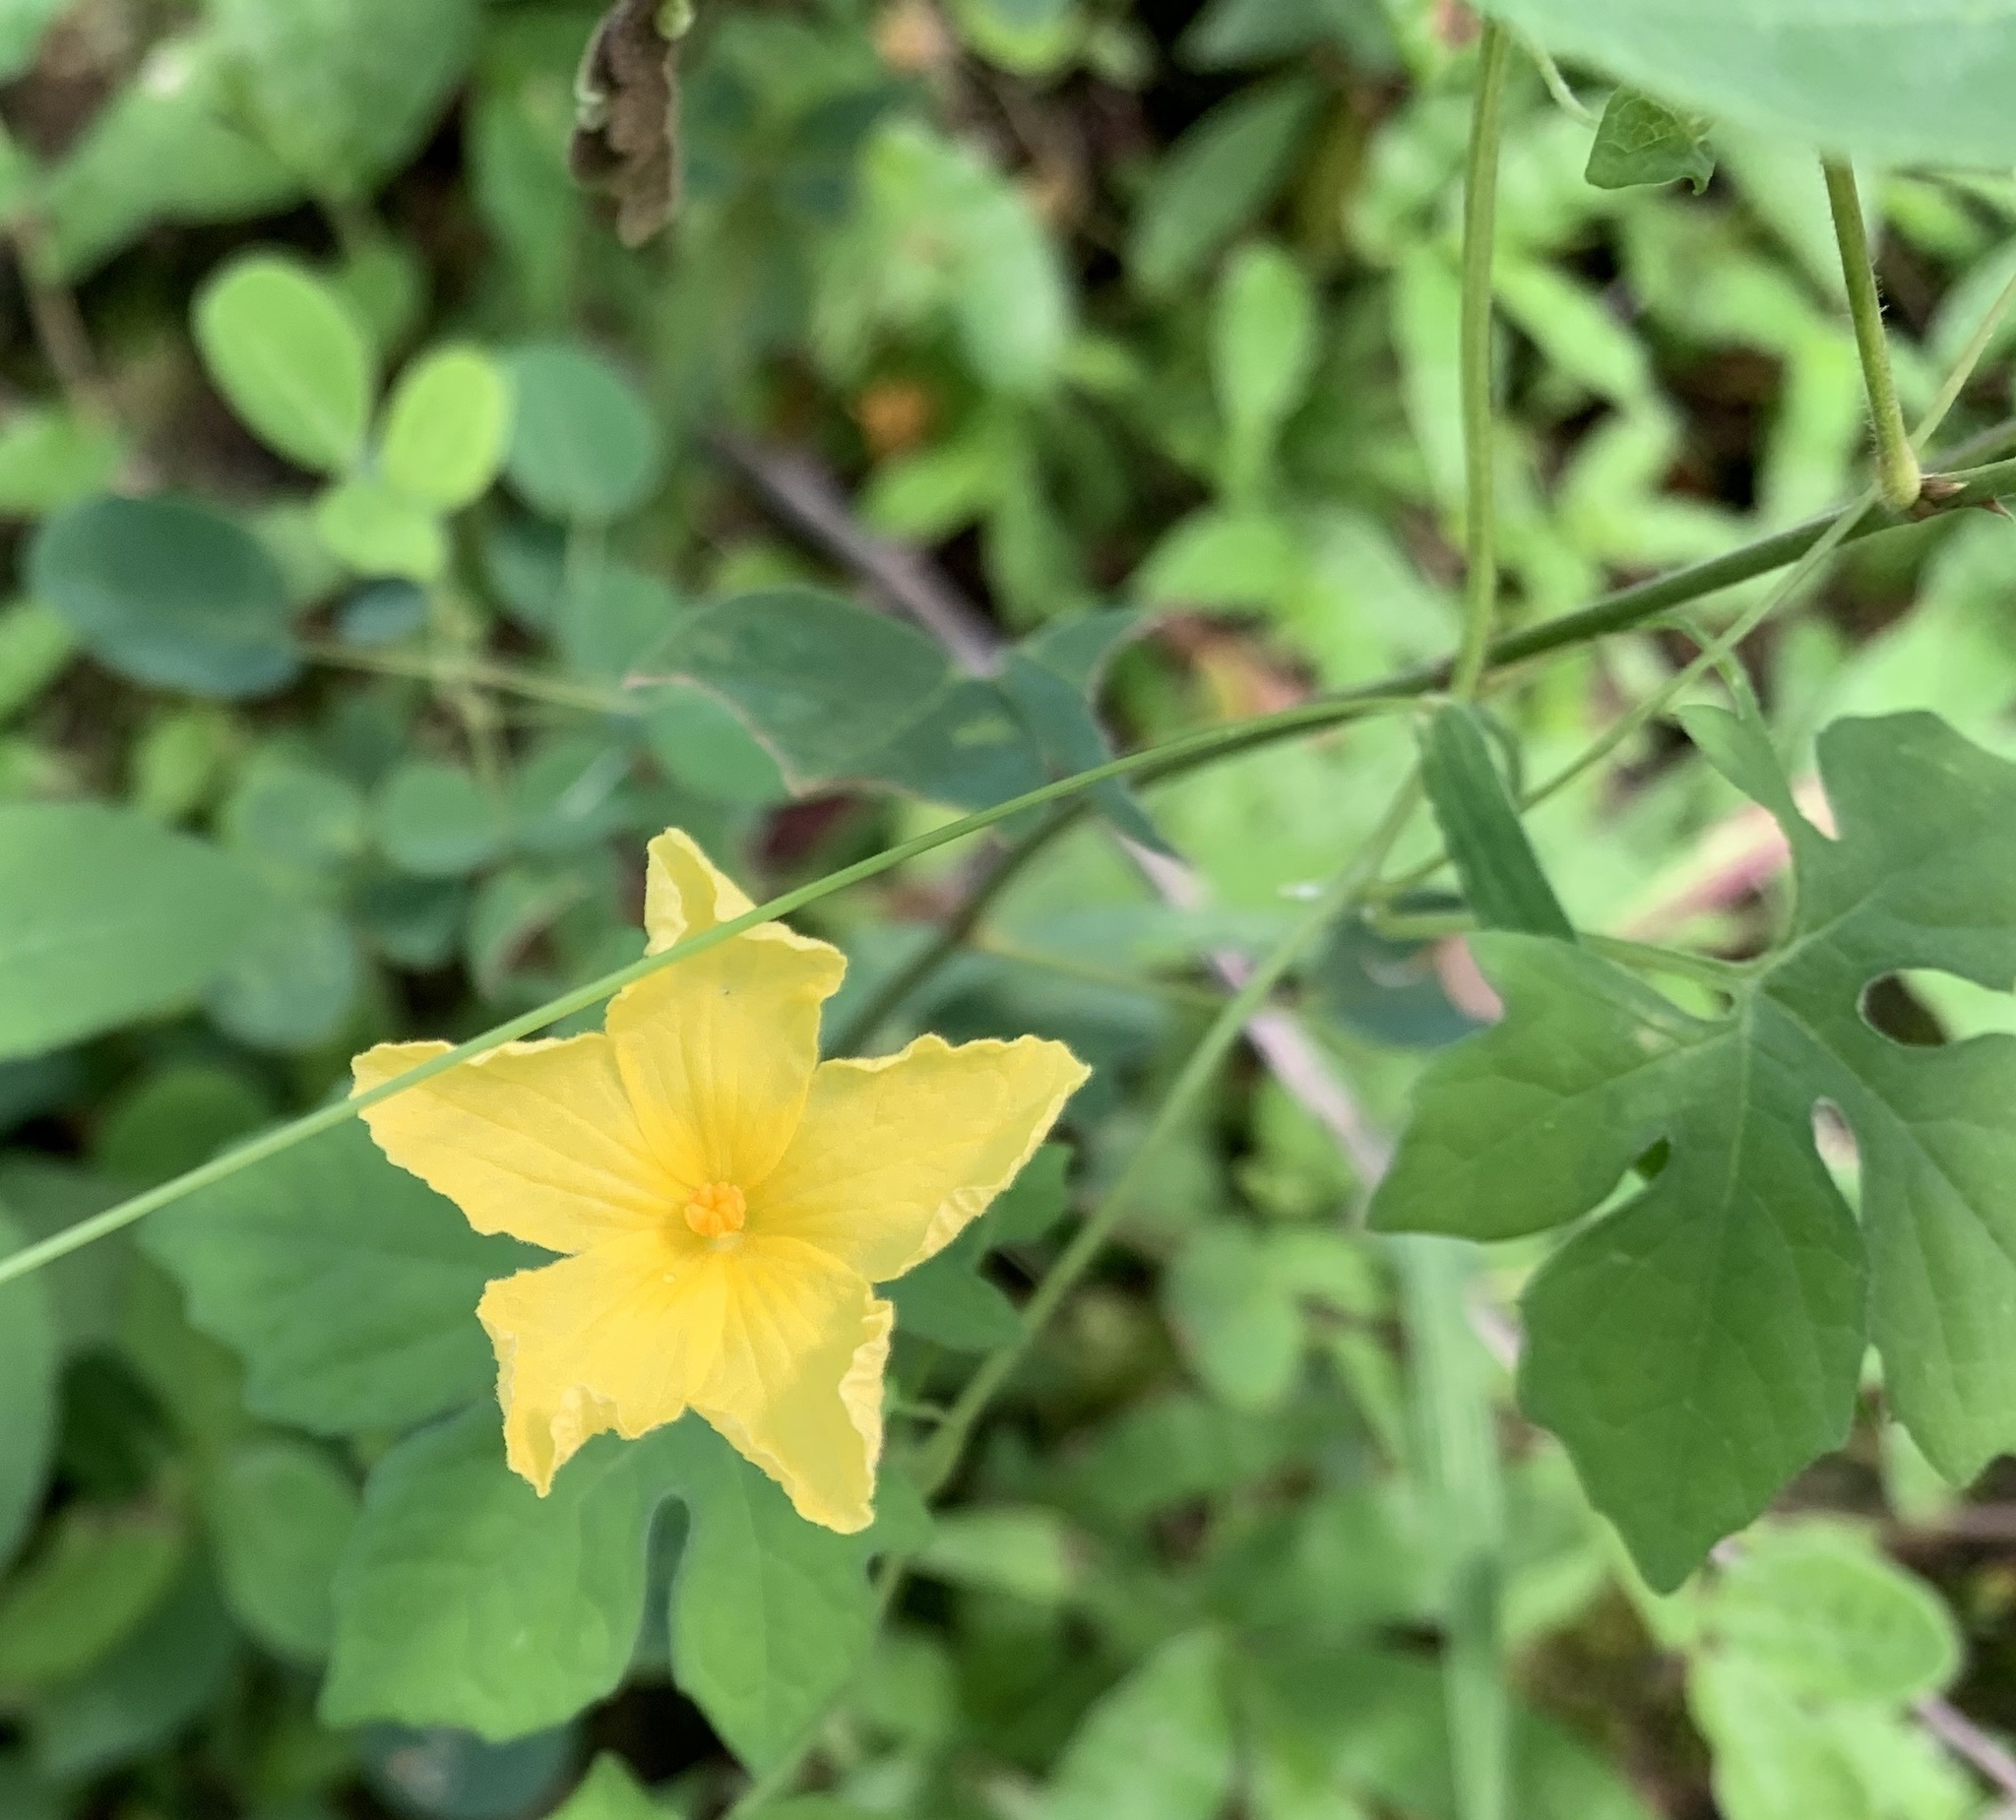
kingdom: Plantae
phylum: Tracheophyta
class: Magnoliopsida
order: Cucurbitales
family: Cucurbitaceae
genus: Momordica
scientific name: Momordica charantia
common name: Balsampear
